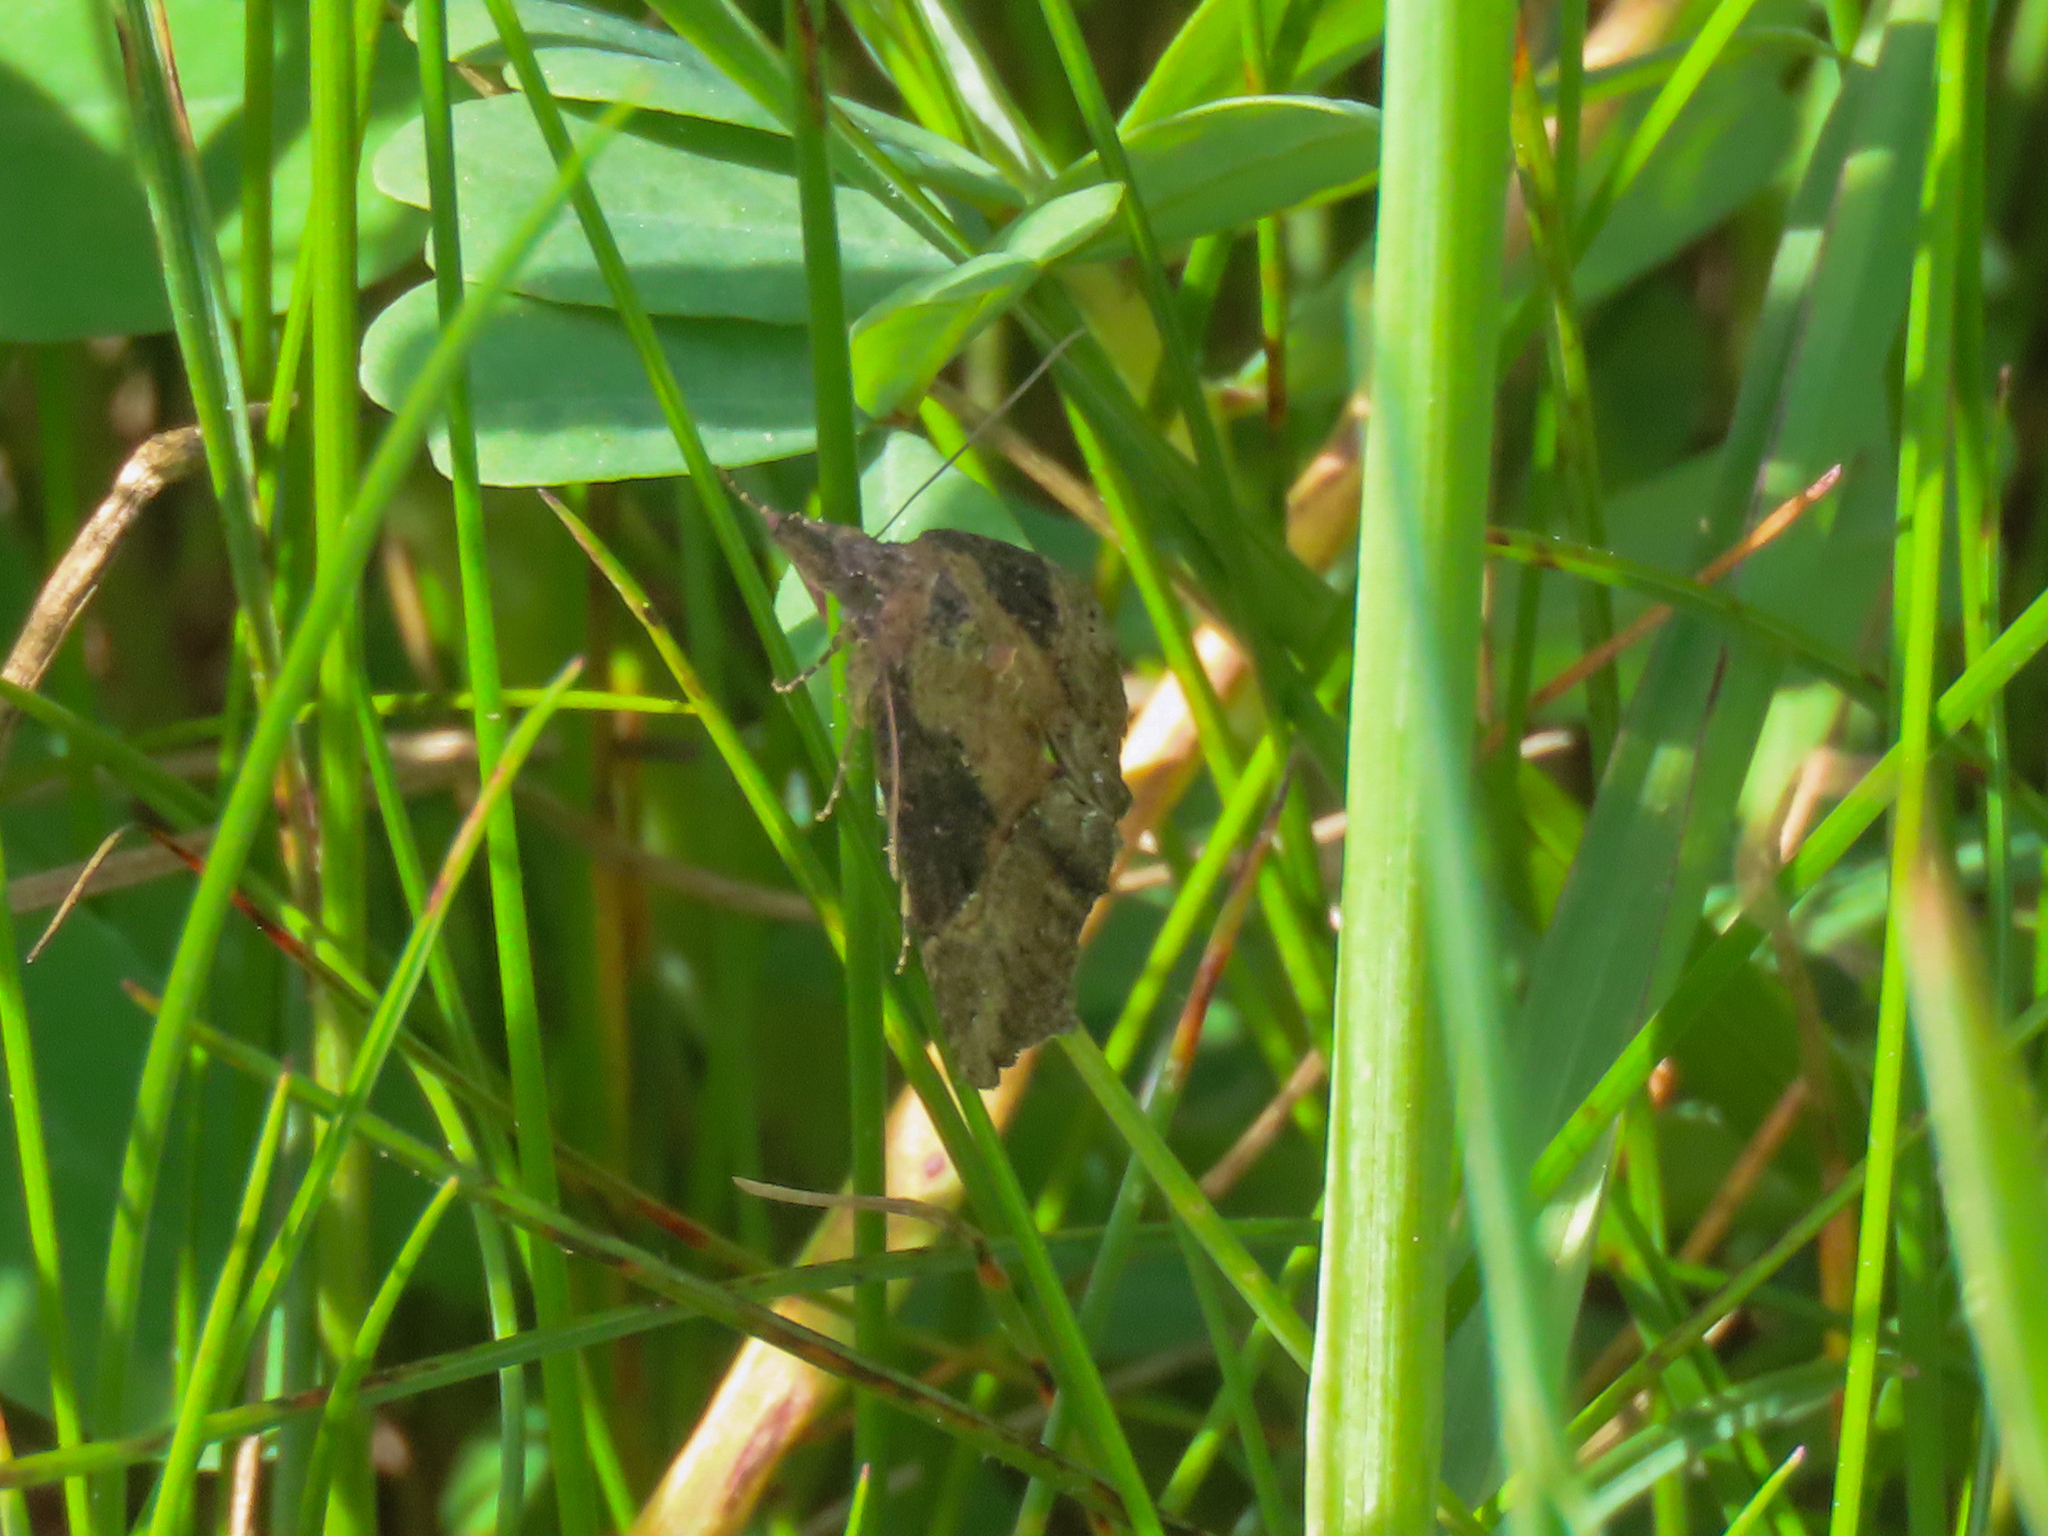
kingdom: Animalia
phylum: Arthropoda
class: Insecta
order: Lepidoptera
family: Erebidae
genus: Hypena
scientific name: Hypena scabra
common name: Green cloverworm
